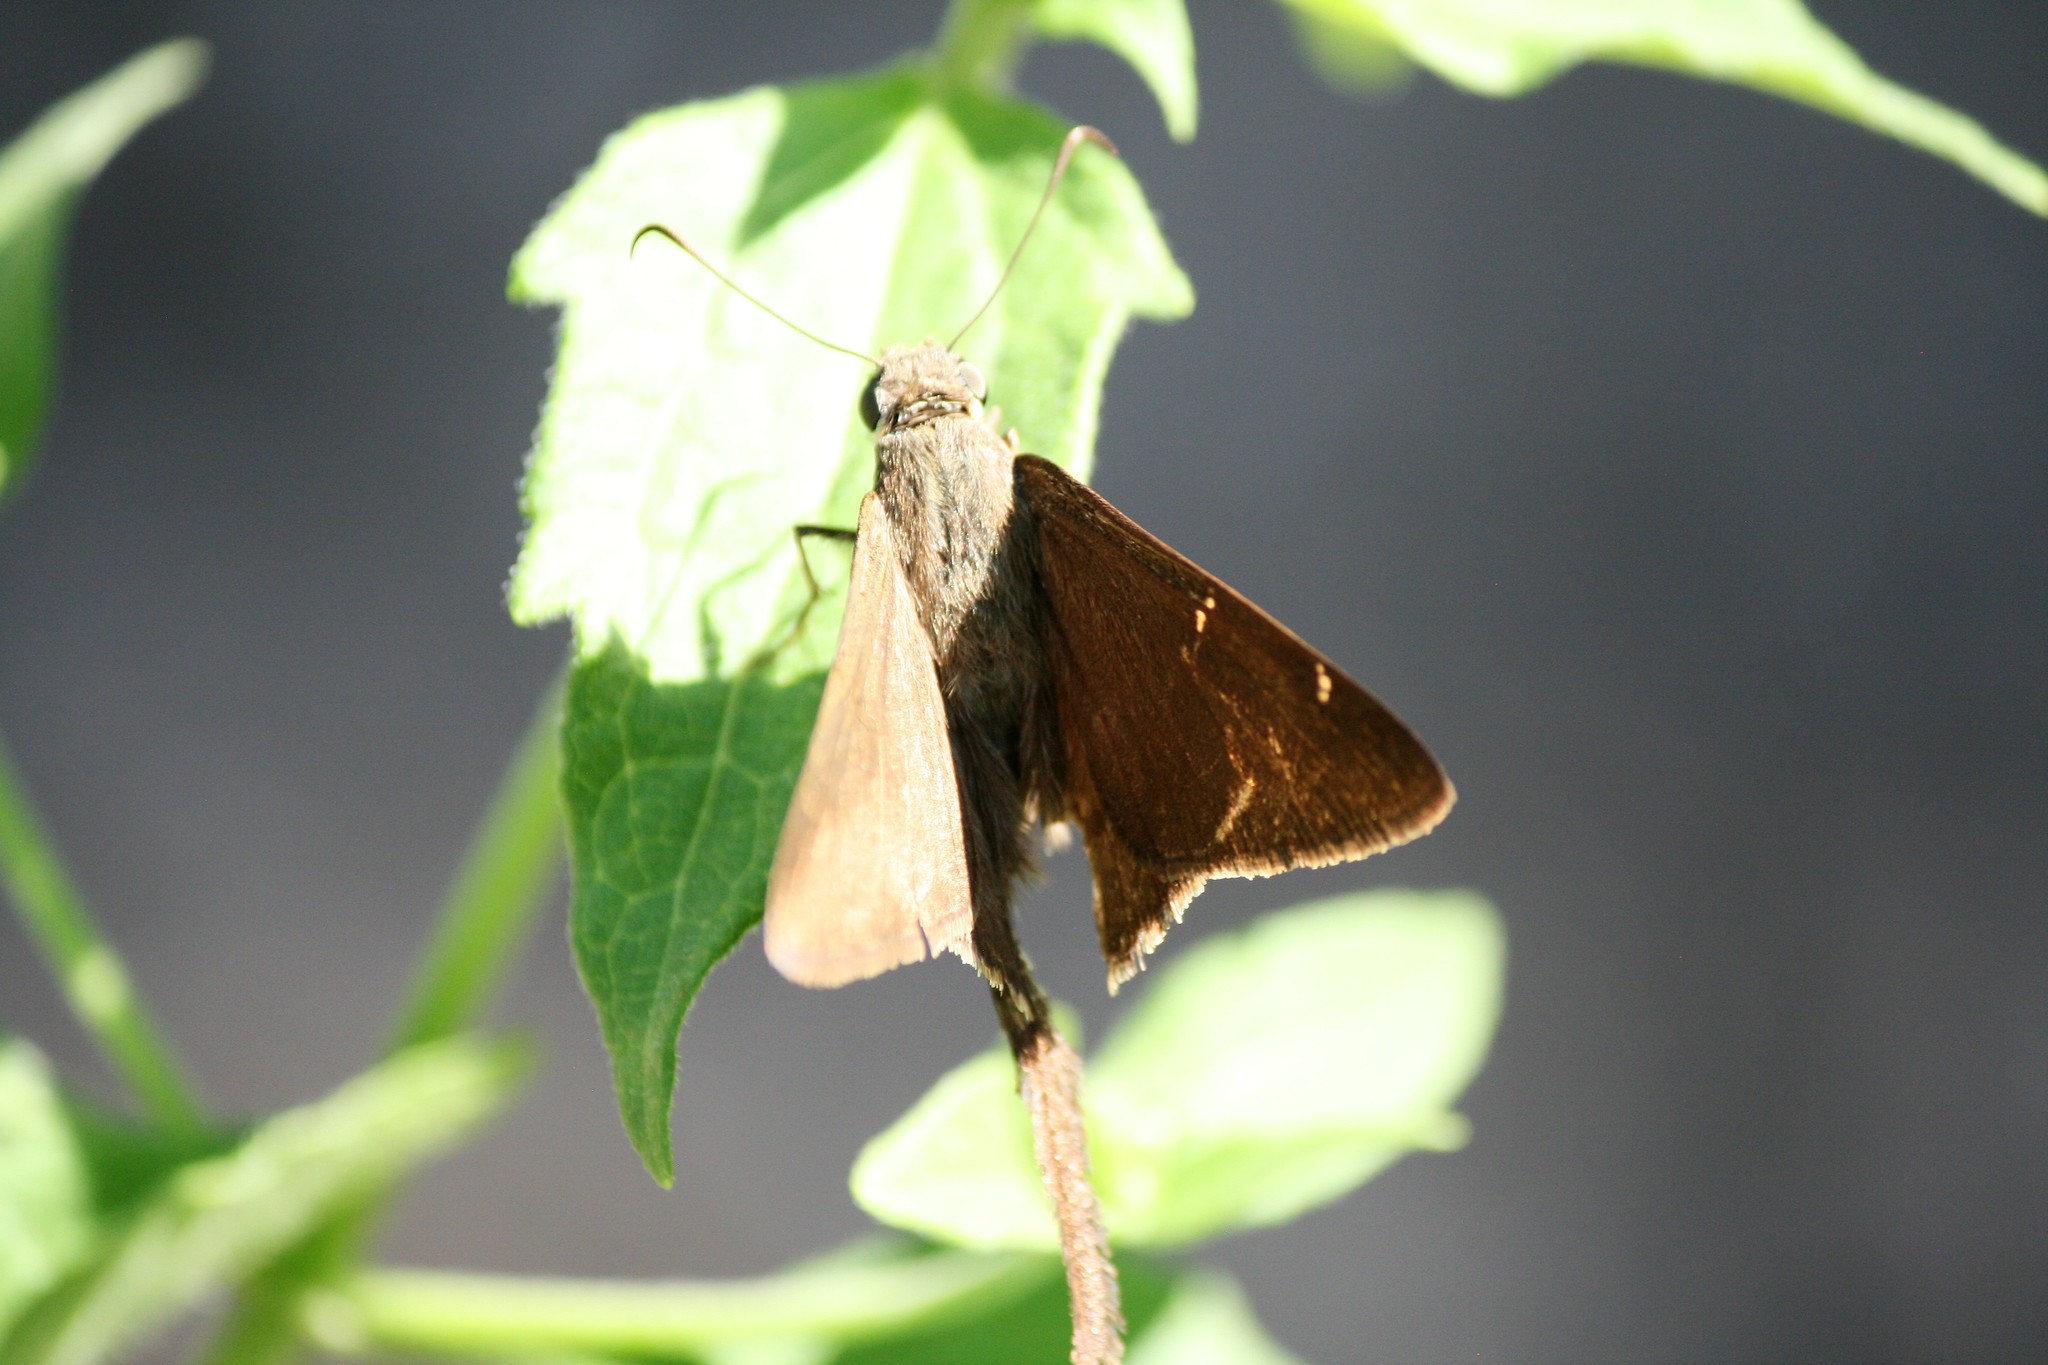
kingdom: Animalia
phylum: Arthropoda
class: Insecta
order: Lepidoptera
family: Hesperiidae
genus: Urbanus
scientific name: Urbanus procne
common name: Brown longtail
